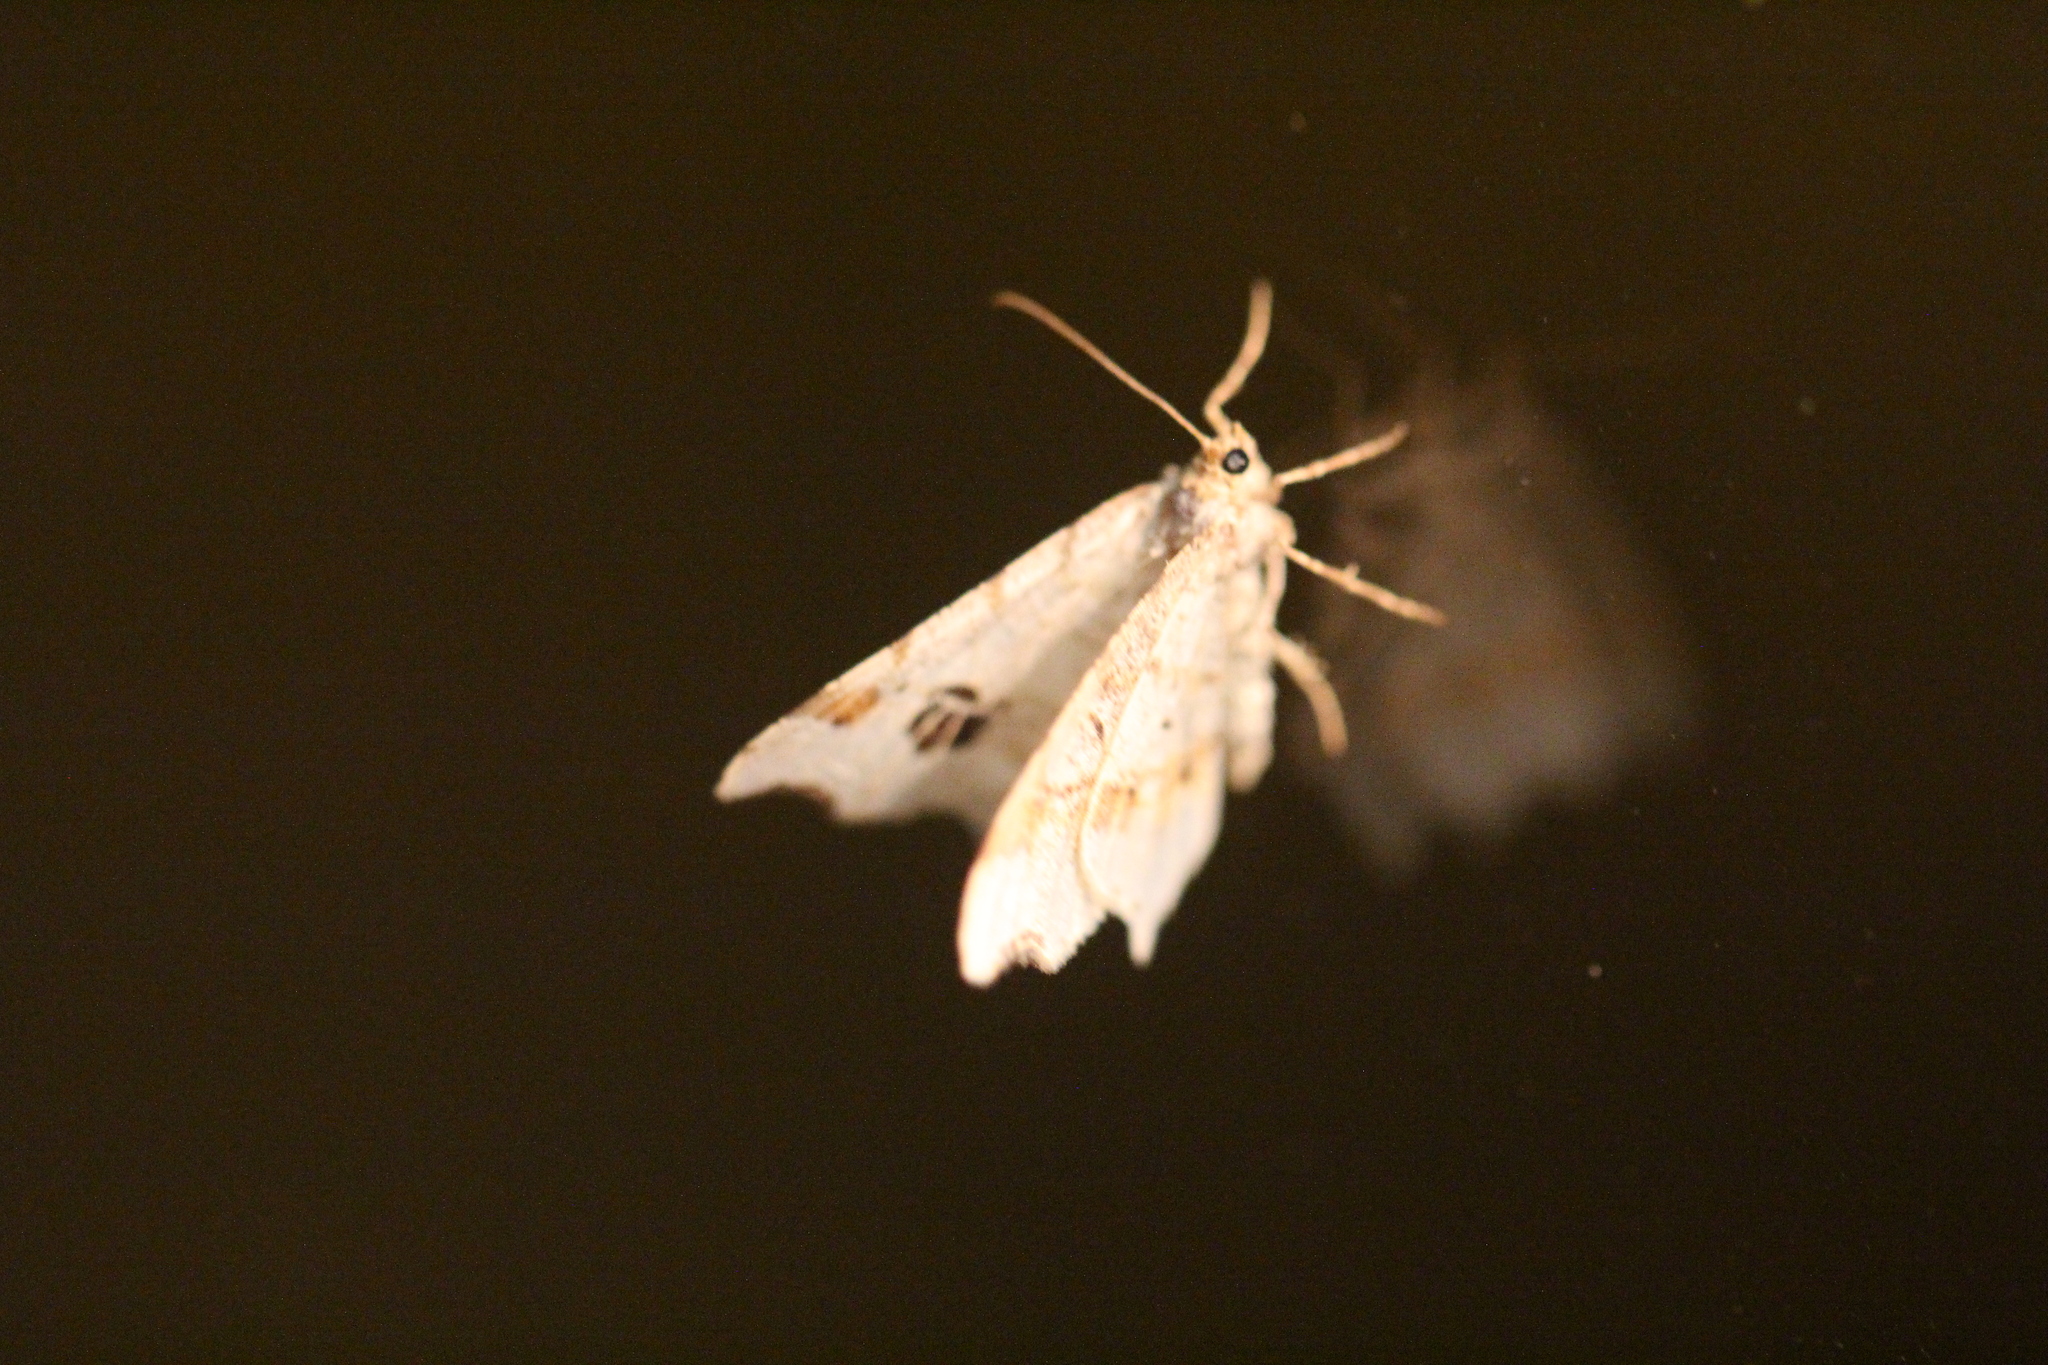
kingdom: Animalia
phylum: Arthropoda
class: Insecta
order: Lepidoptera
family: Geometridae
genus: Macaria
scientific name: Macaria aemulataria
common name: Common angle
